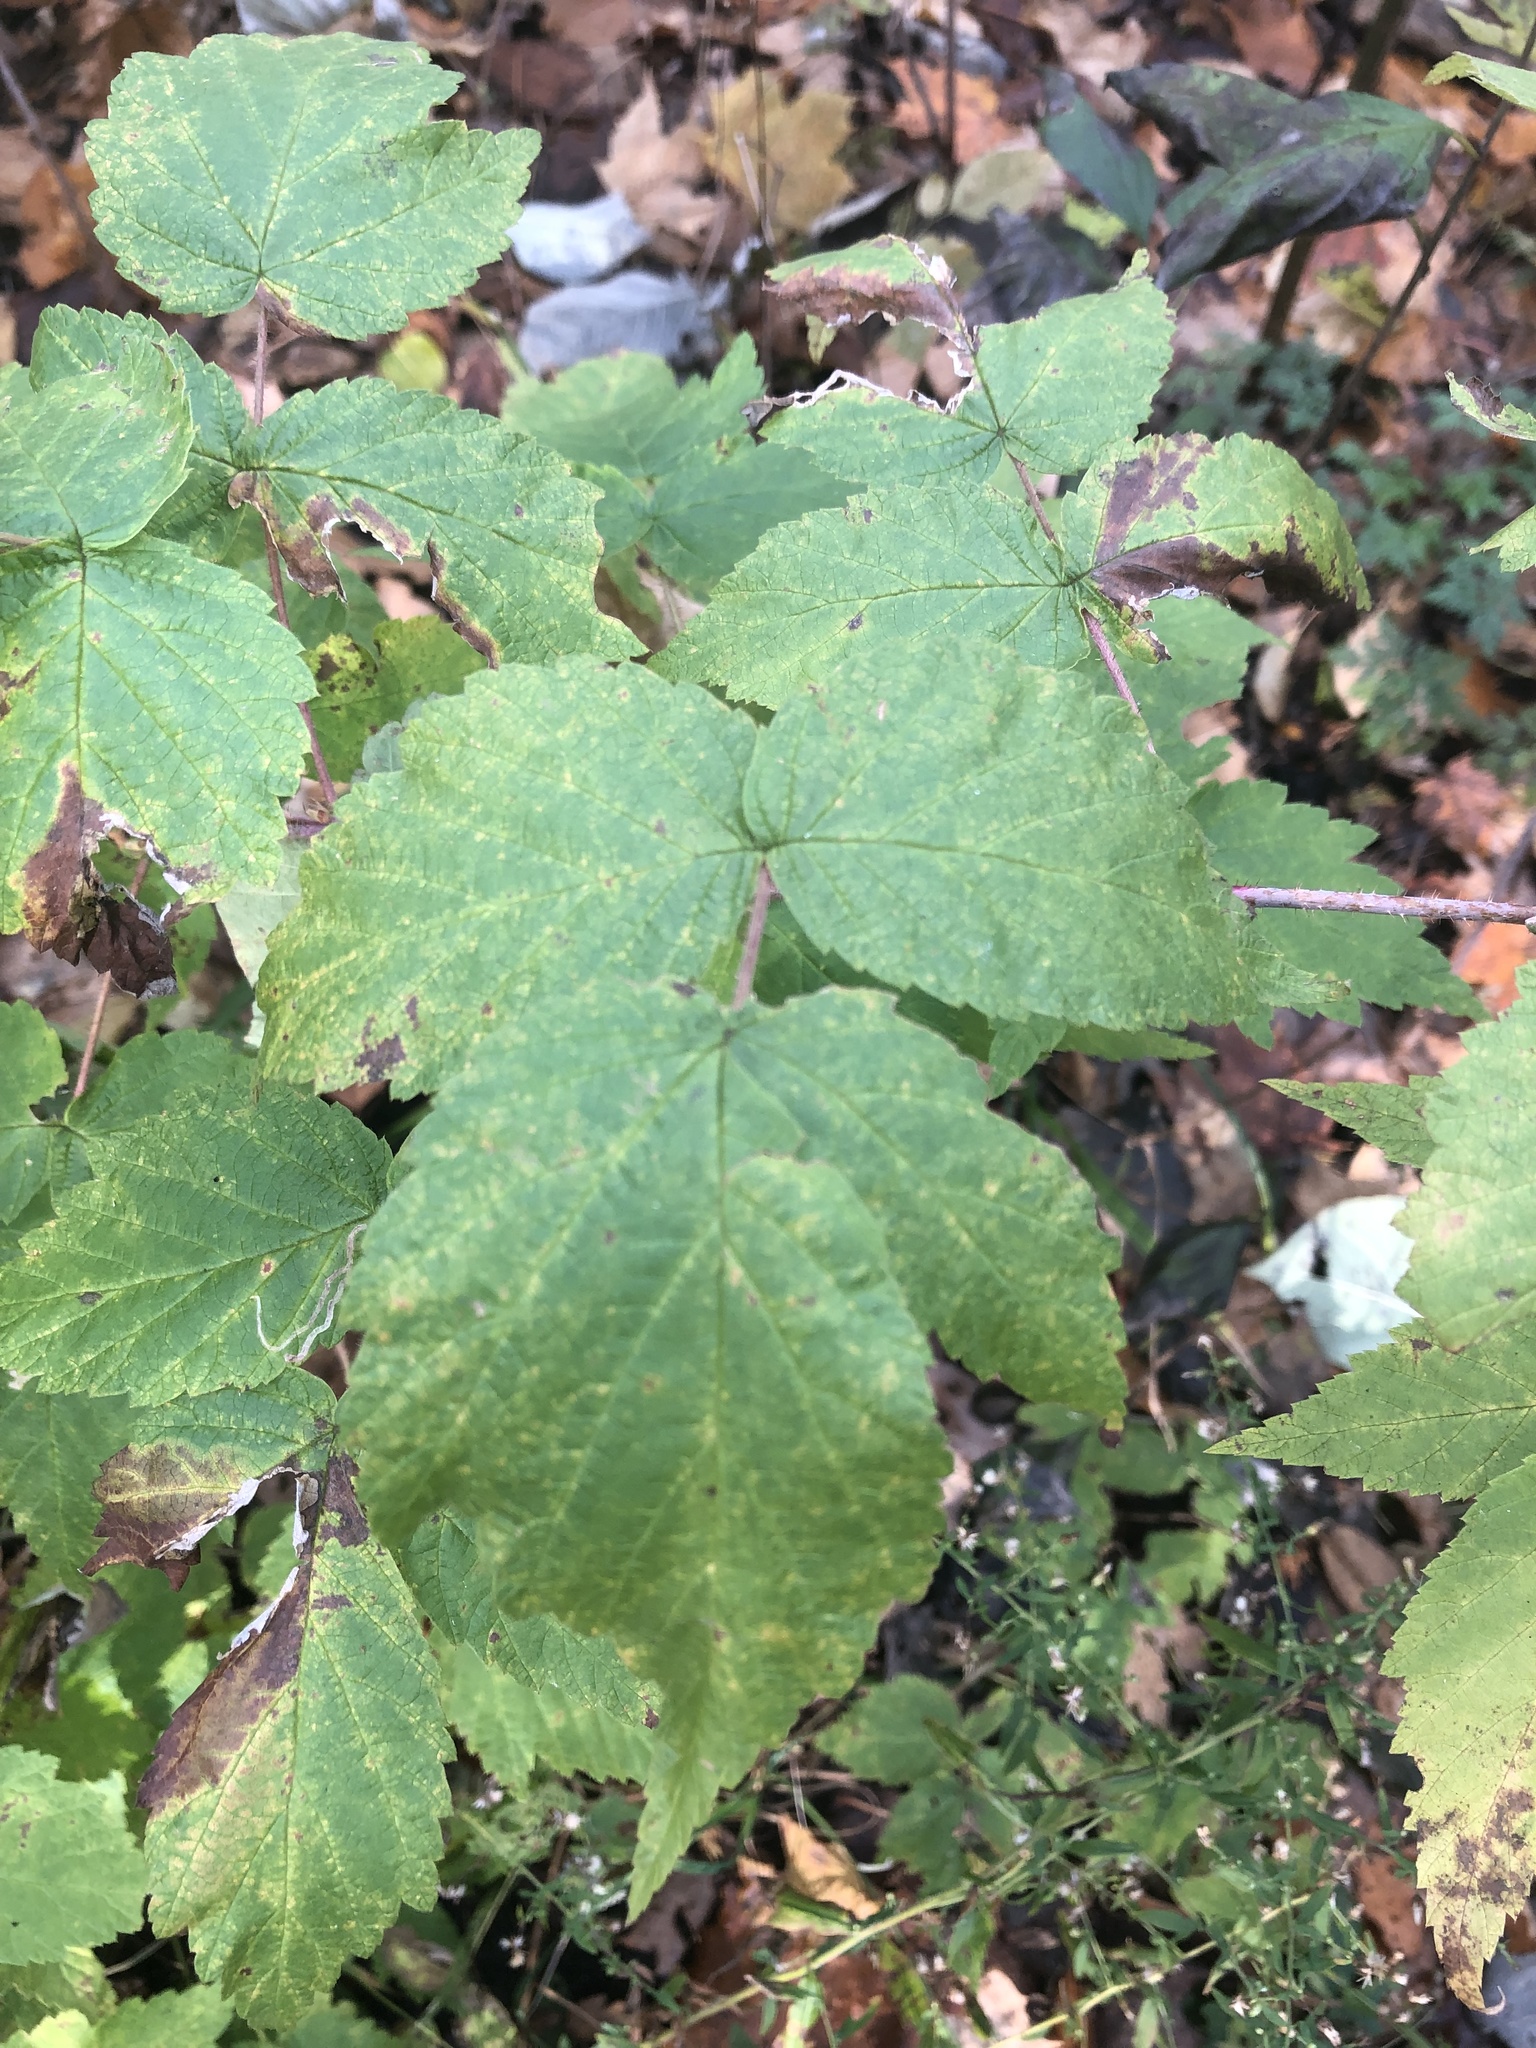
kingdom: Plantae
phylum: Tracheophyta
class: Magnoliopsida
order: Rosales
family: Rosaceae
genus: Rubus
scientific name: Rubus idaeus
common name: Raspberry
